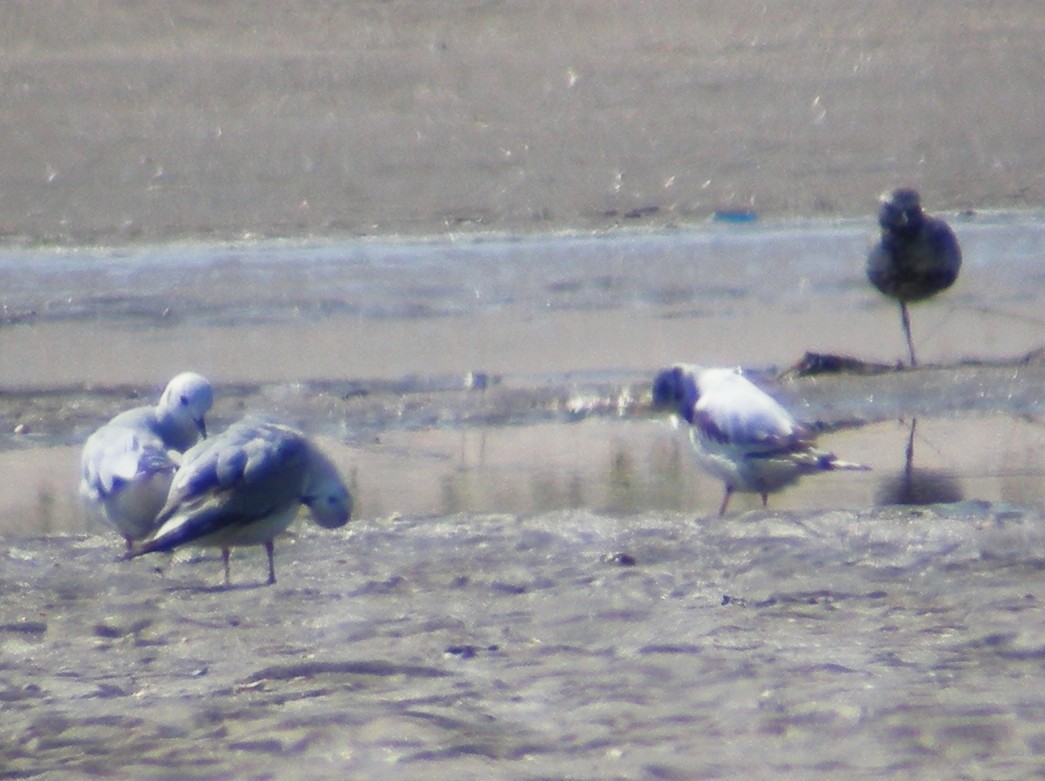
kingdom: Animalia
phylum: Chordata
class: Aves
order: Charadriiformes
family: Laridae
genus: Hydrocoloeus
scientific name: Hydrocoloeus minutus
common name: Little gull
